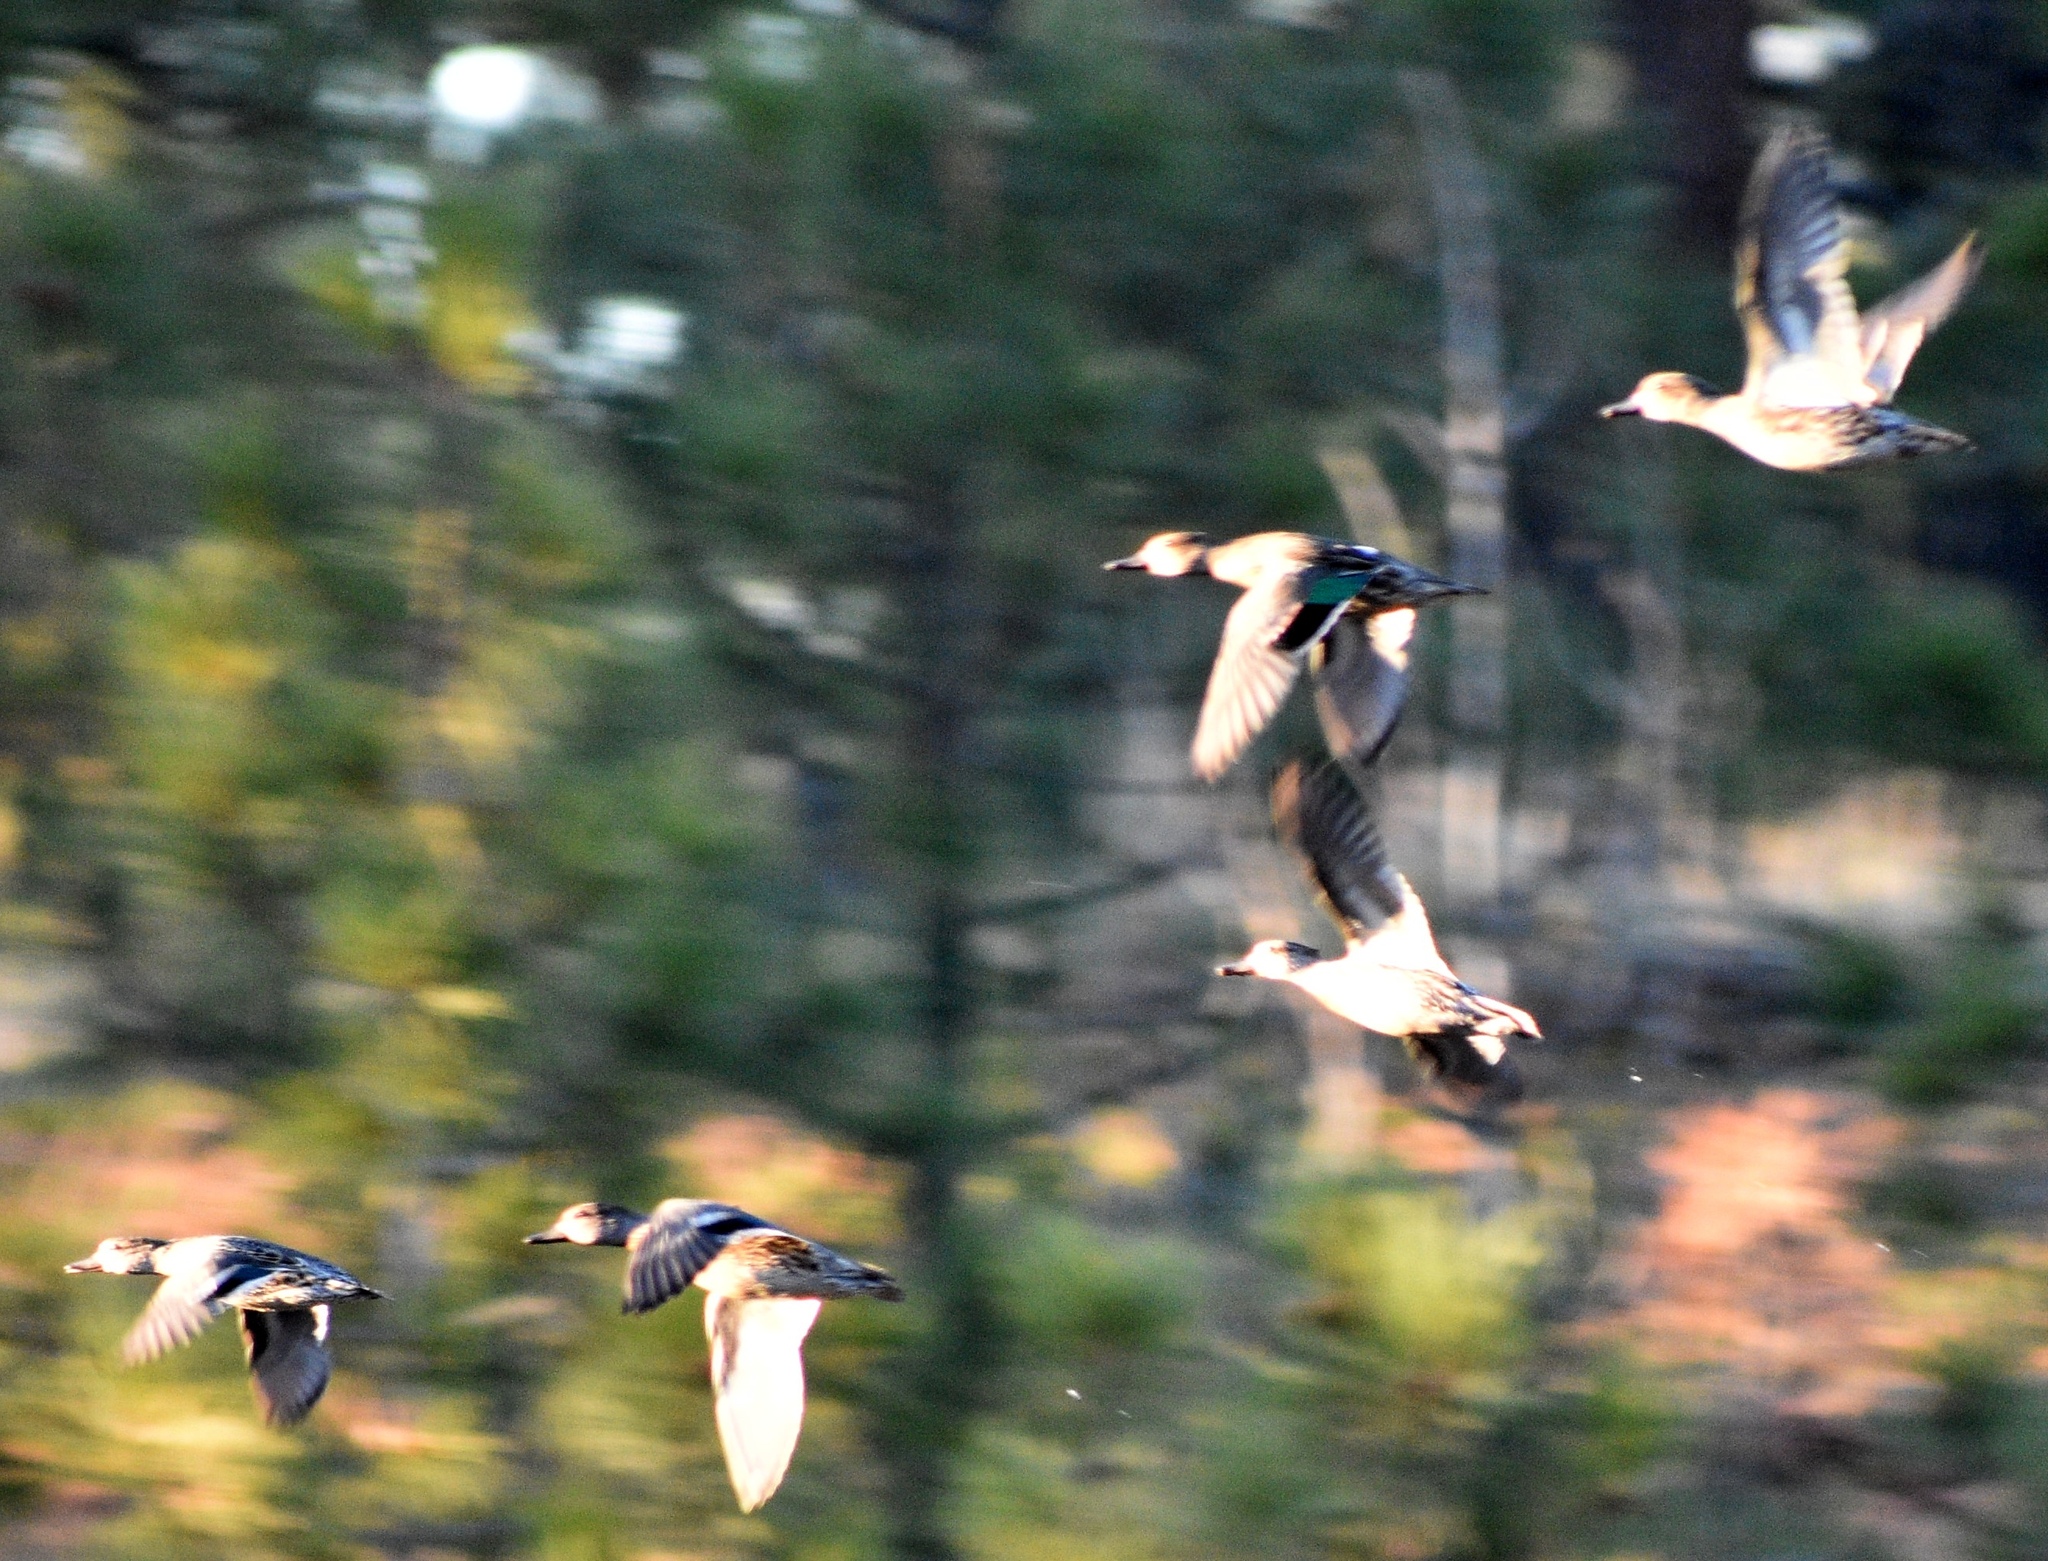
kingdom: Animalia
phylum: Chordata
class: Aves
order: Anseriformes
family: Anatidae
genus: Anas
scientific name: Anas crecca
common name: Eurasian teal
